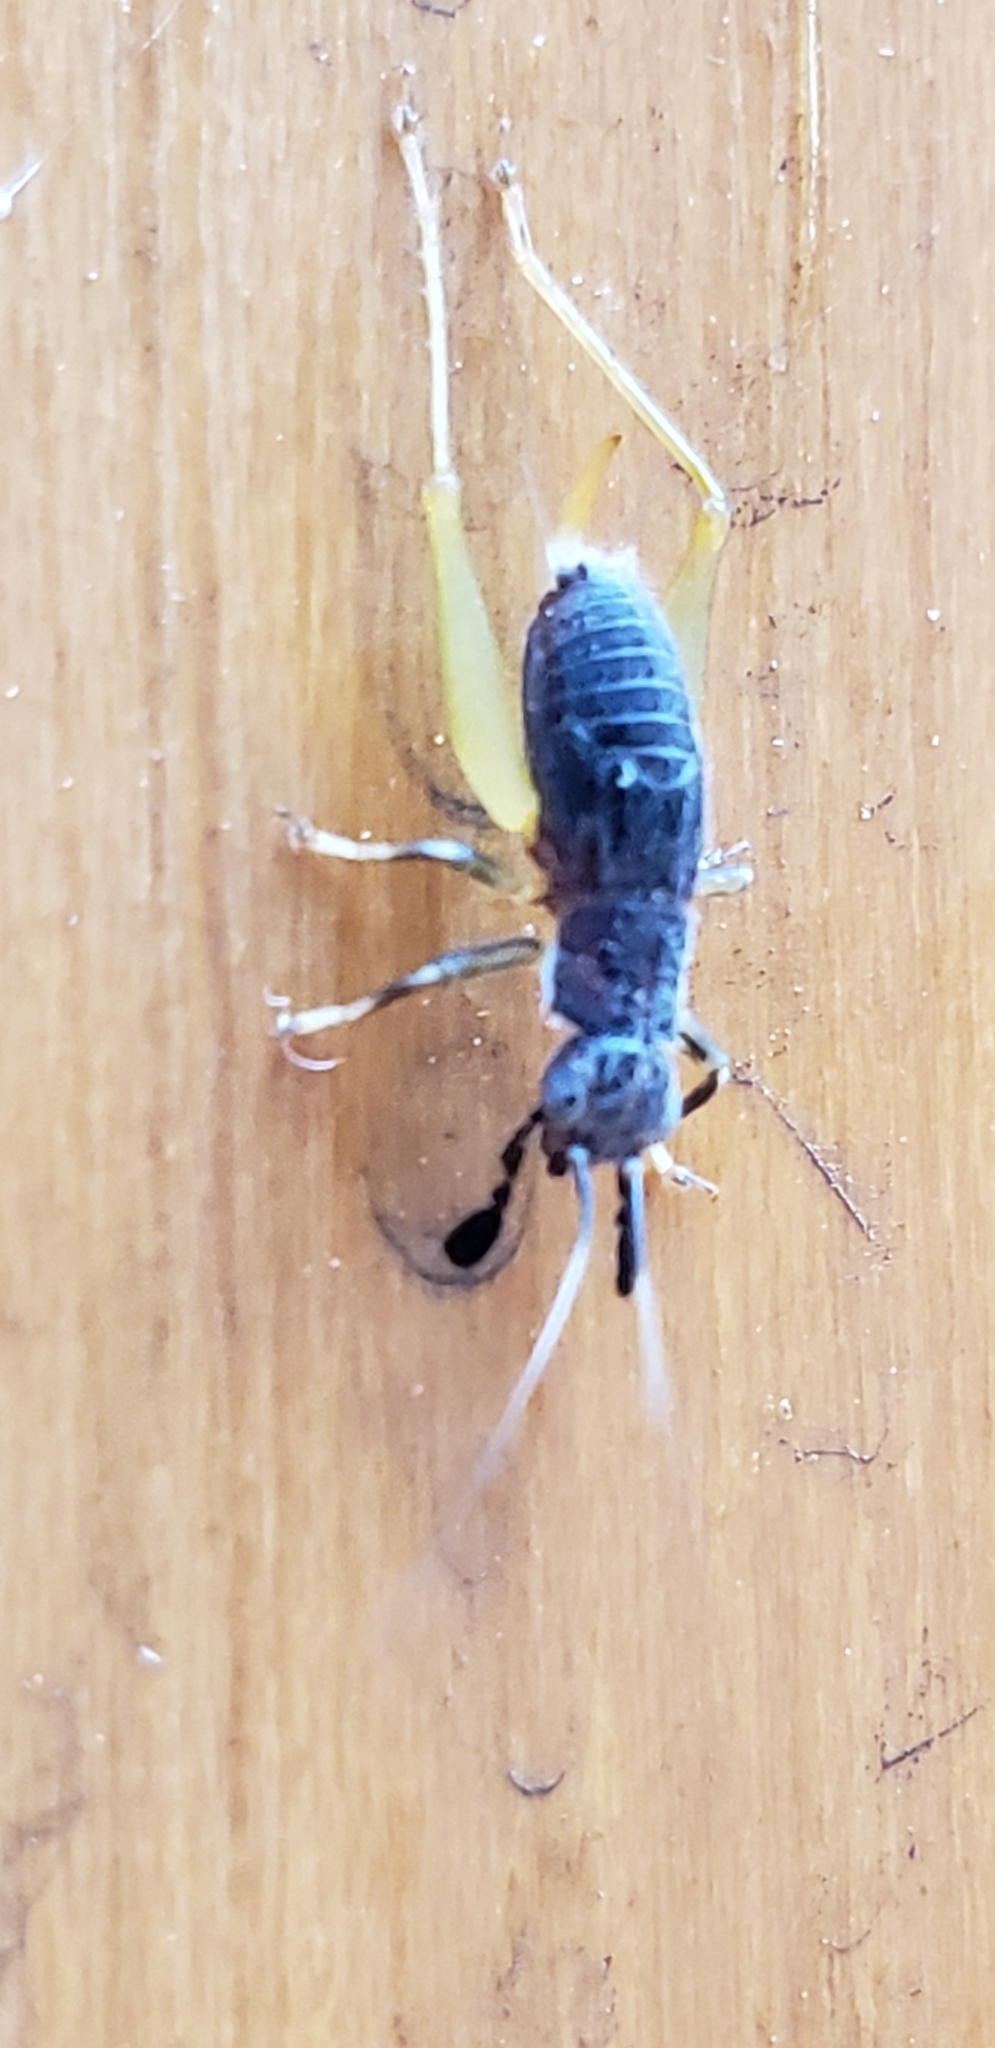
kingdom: Animalia
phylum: Arthropoda
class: Insecta
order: Orthoptera
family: Trigonidiidae
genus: Phyllopalpus
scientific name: Phyllopalpus pulchellus
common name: Handsome trig
